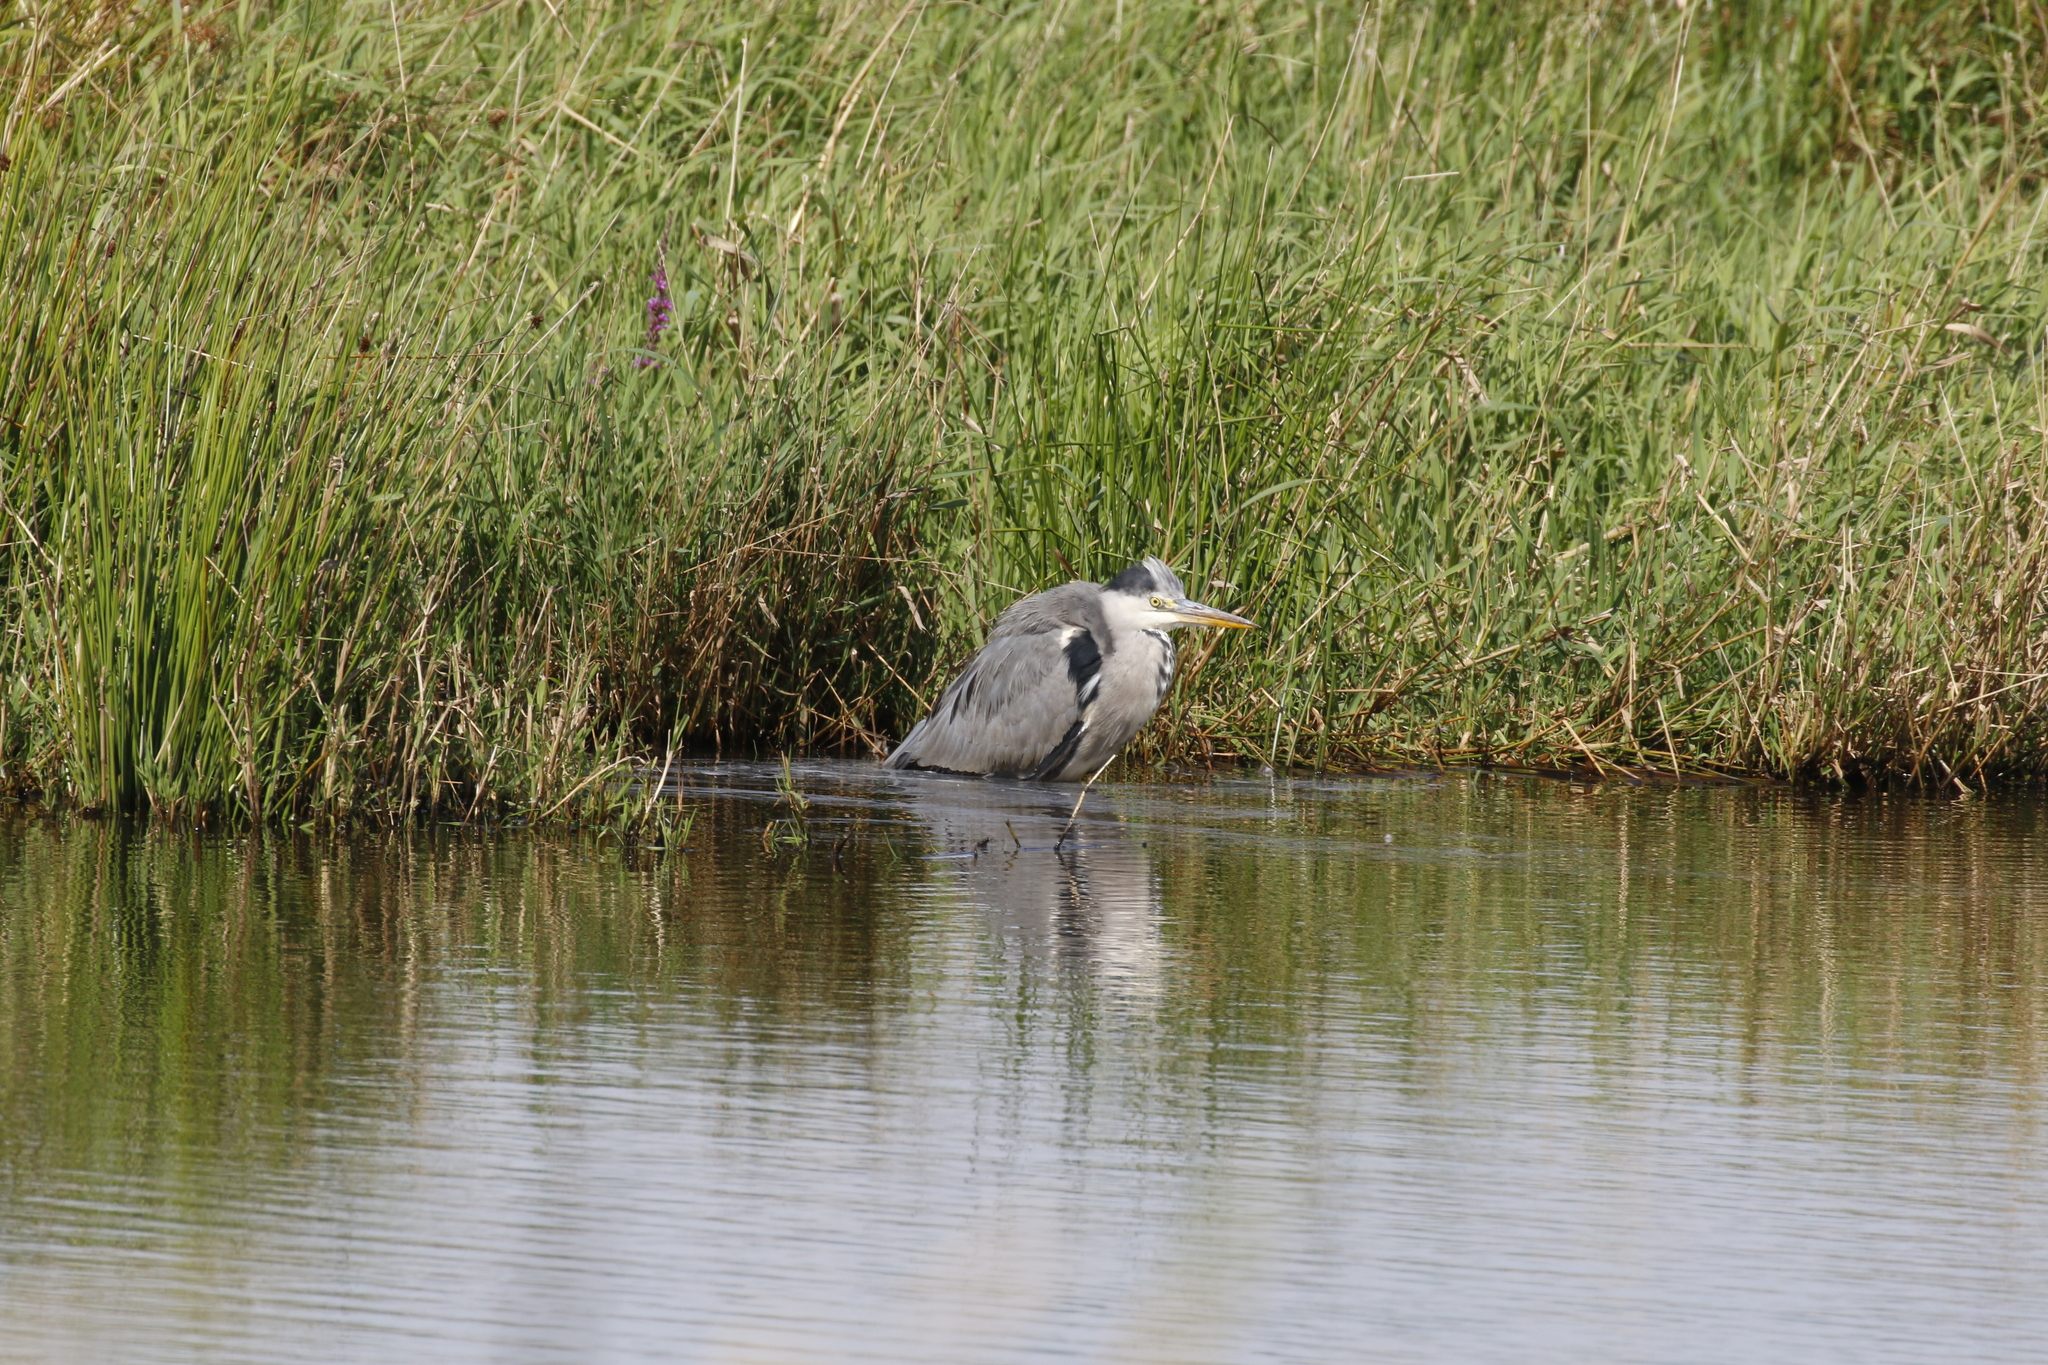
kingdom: Animalia
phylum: Chordata
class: Aves
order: Pelecaniformes
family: Ardeidae
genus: Ardea
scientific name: Ardea cinerea
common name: Grey heron
